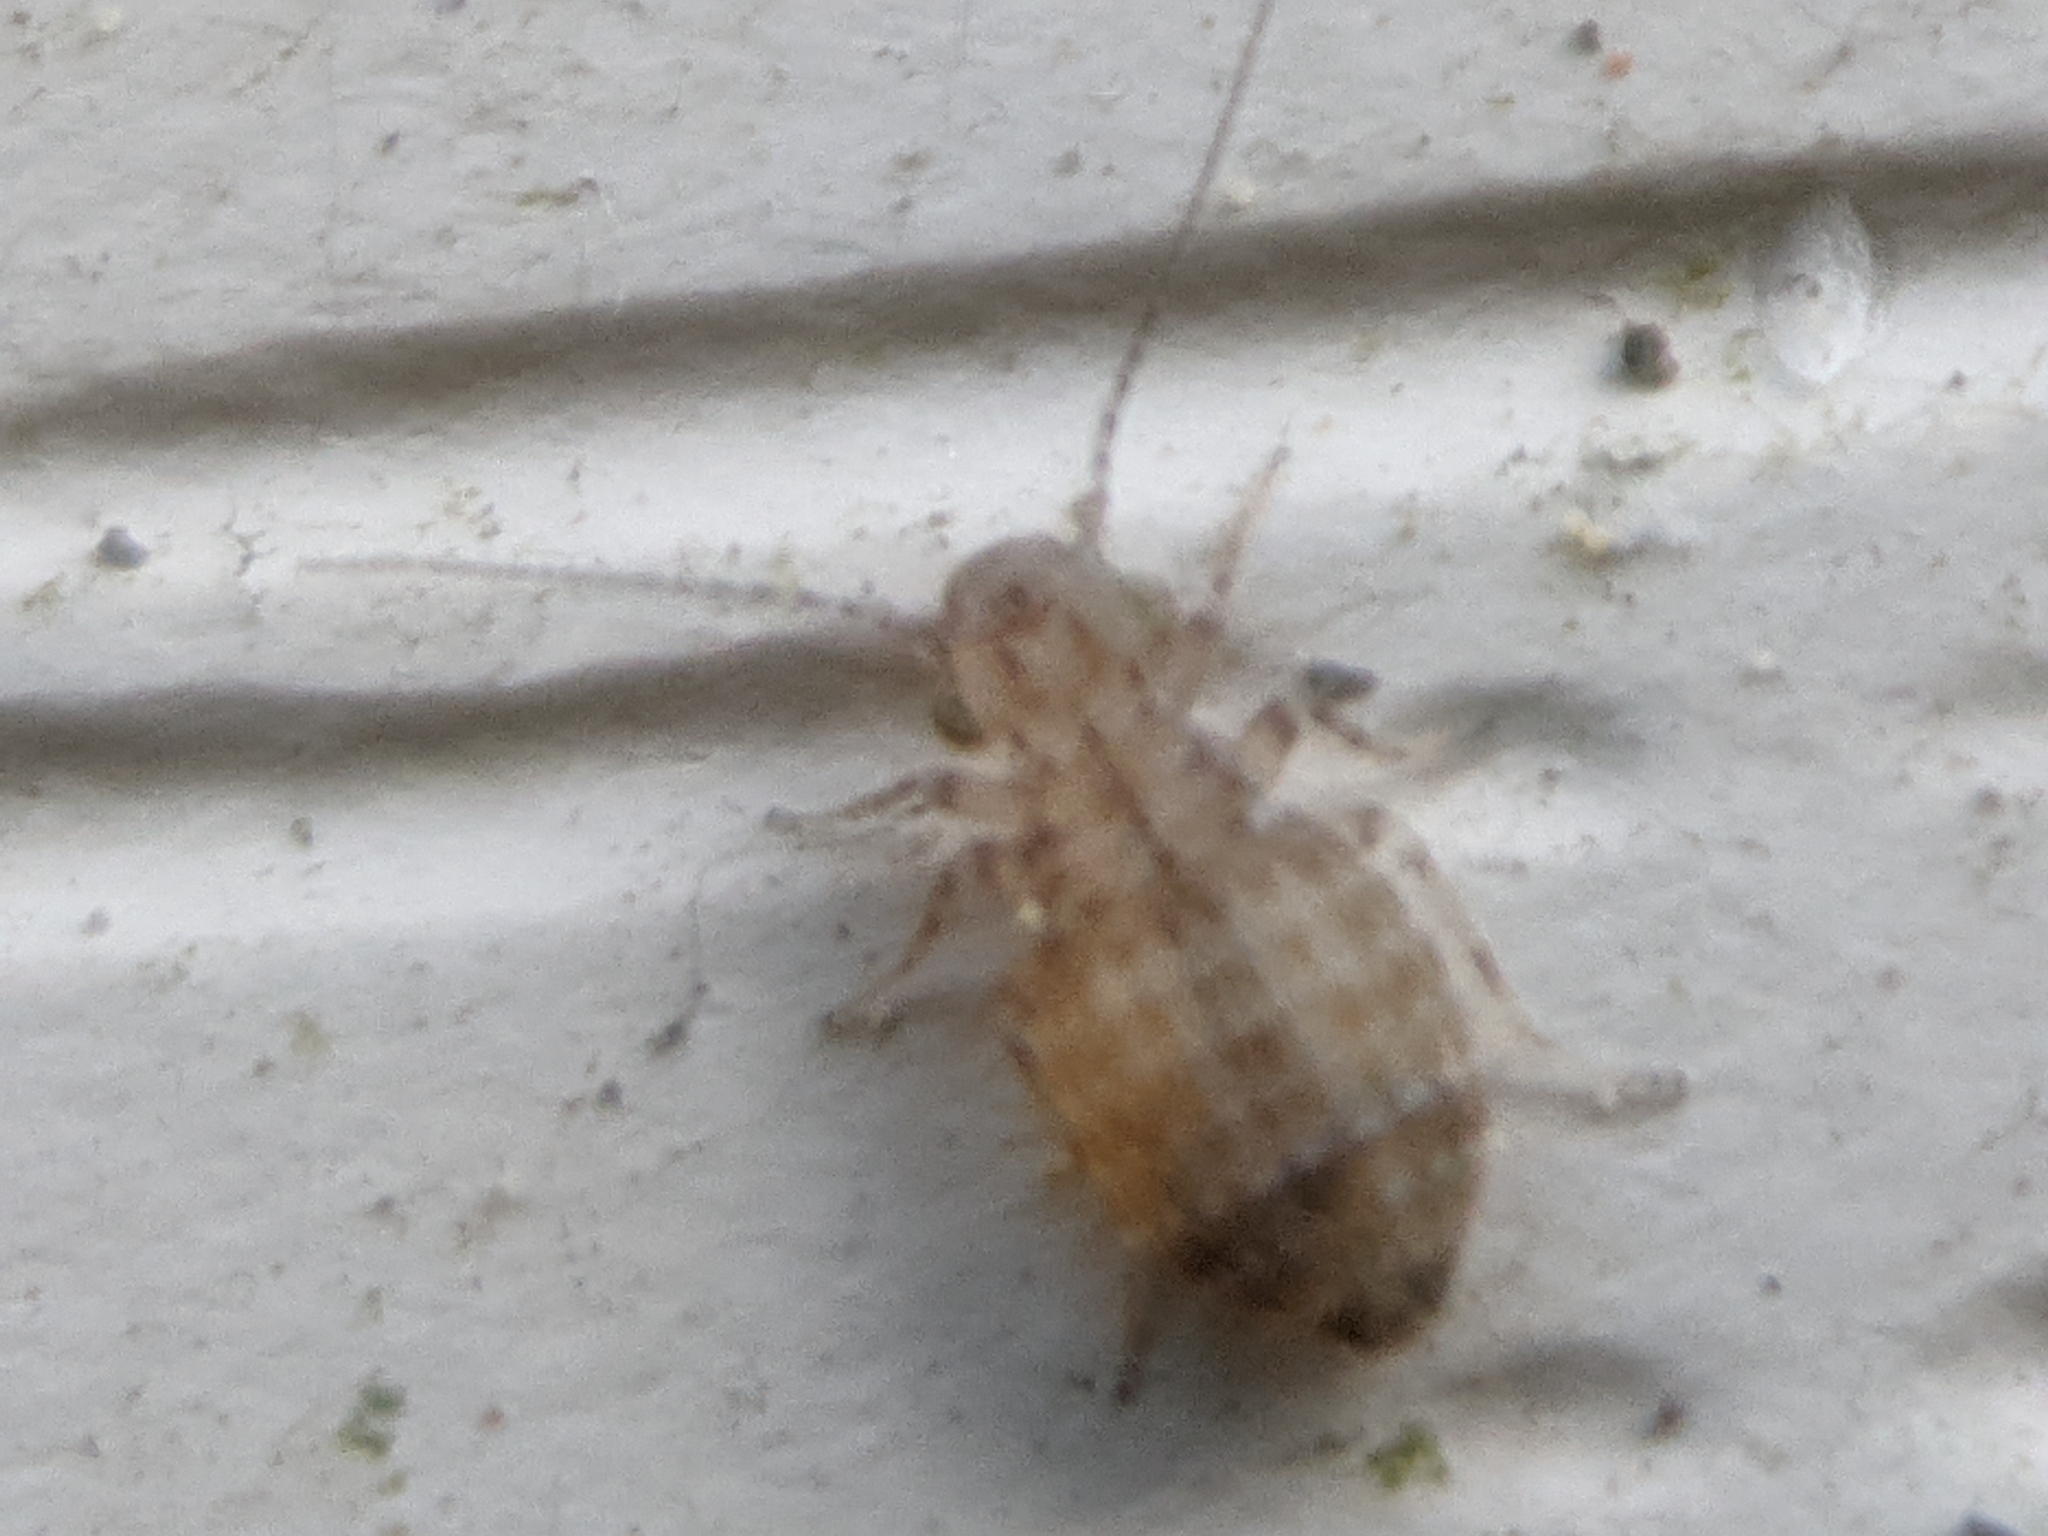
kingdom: Animalia
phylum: Arthropoda
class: Insecta
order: Psocodea
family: Trogiidae
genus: Cerobasis
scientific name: Cerobasis guestfalica
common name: Book lice
